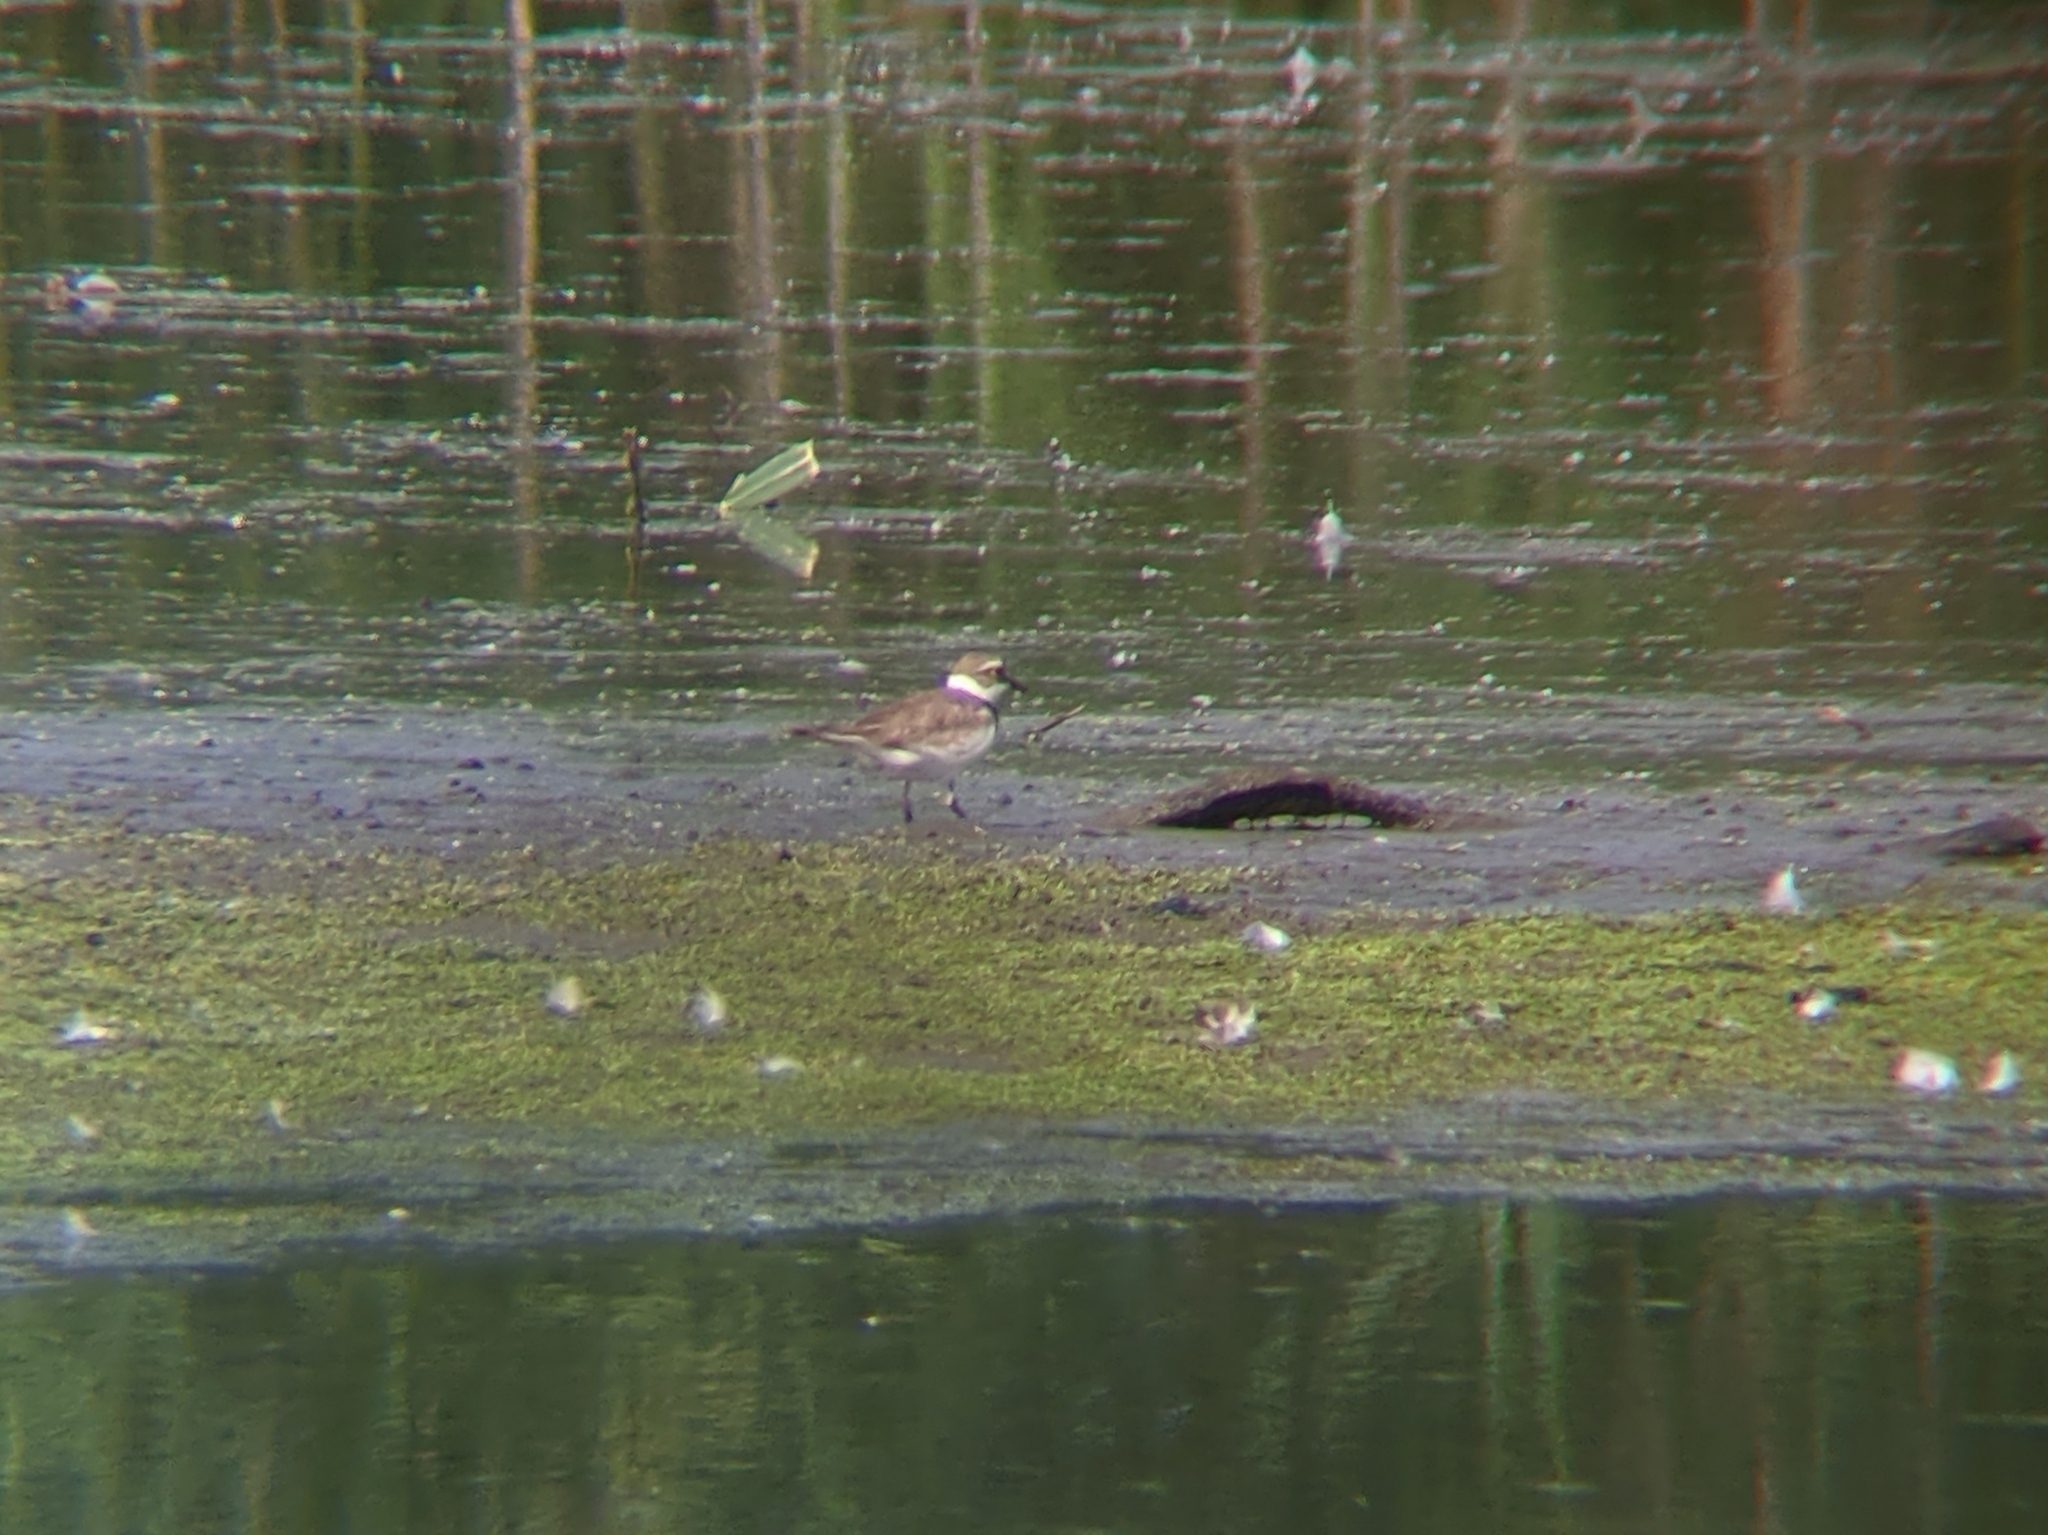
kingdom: Animalia
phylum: Chordata
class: Aves
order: Charadriiformes
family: Charadriidae
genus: Charadrius
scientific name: Charadrius dubius
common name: Little ringed plover
